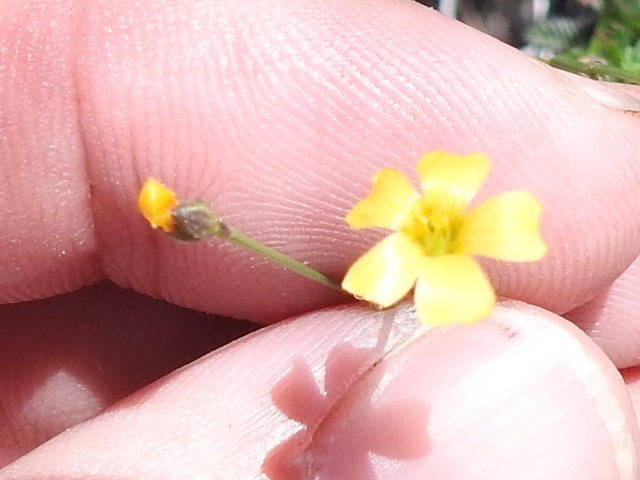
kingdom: Plantae
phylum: Tracheophyta
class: Magnoliopsida
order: Malpighiales
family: Linaceae
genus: Linum
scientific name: Linum rupestre
